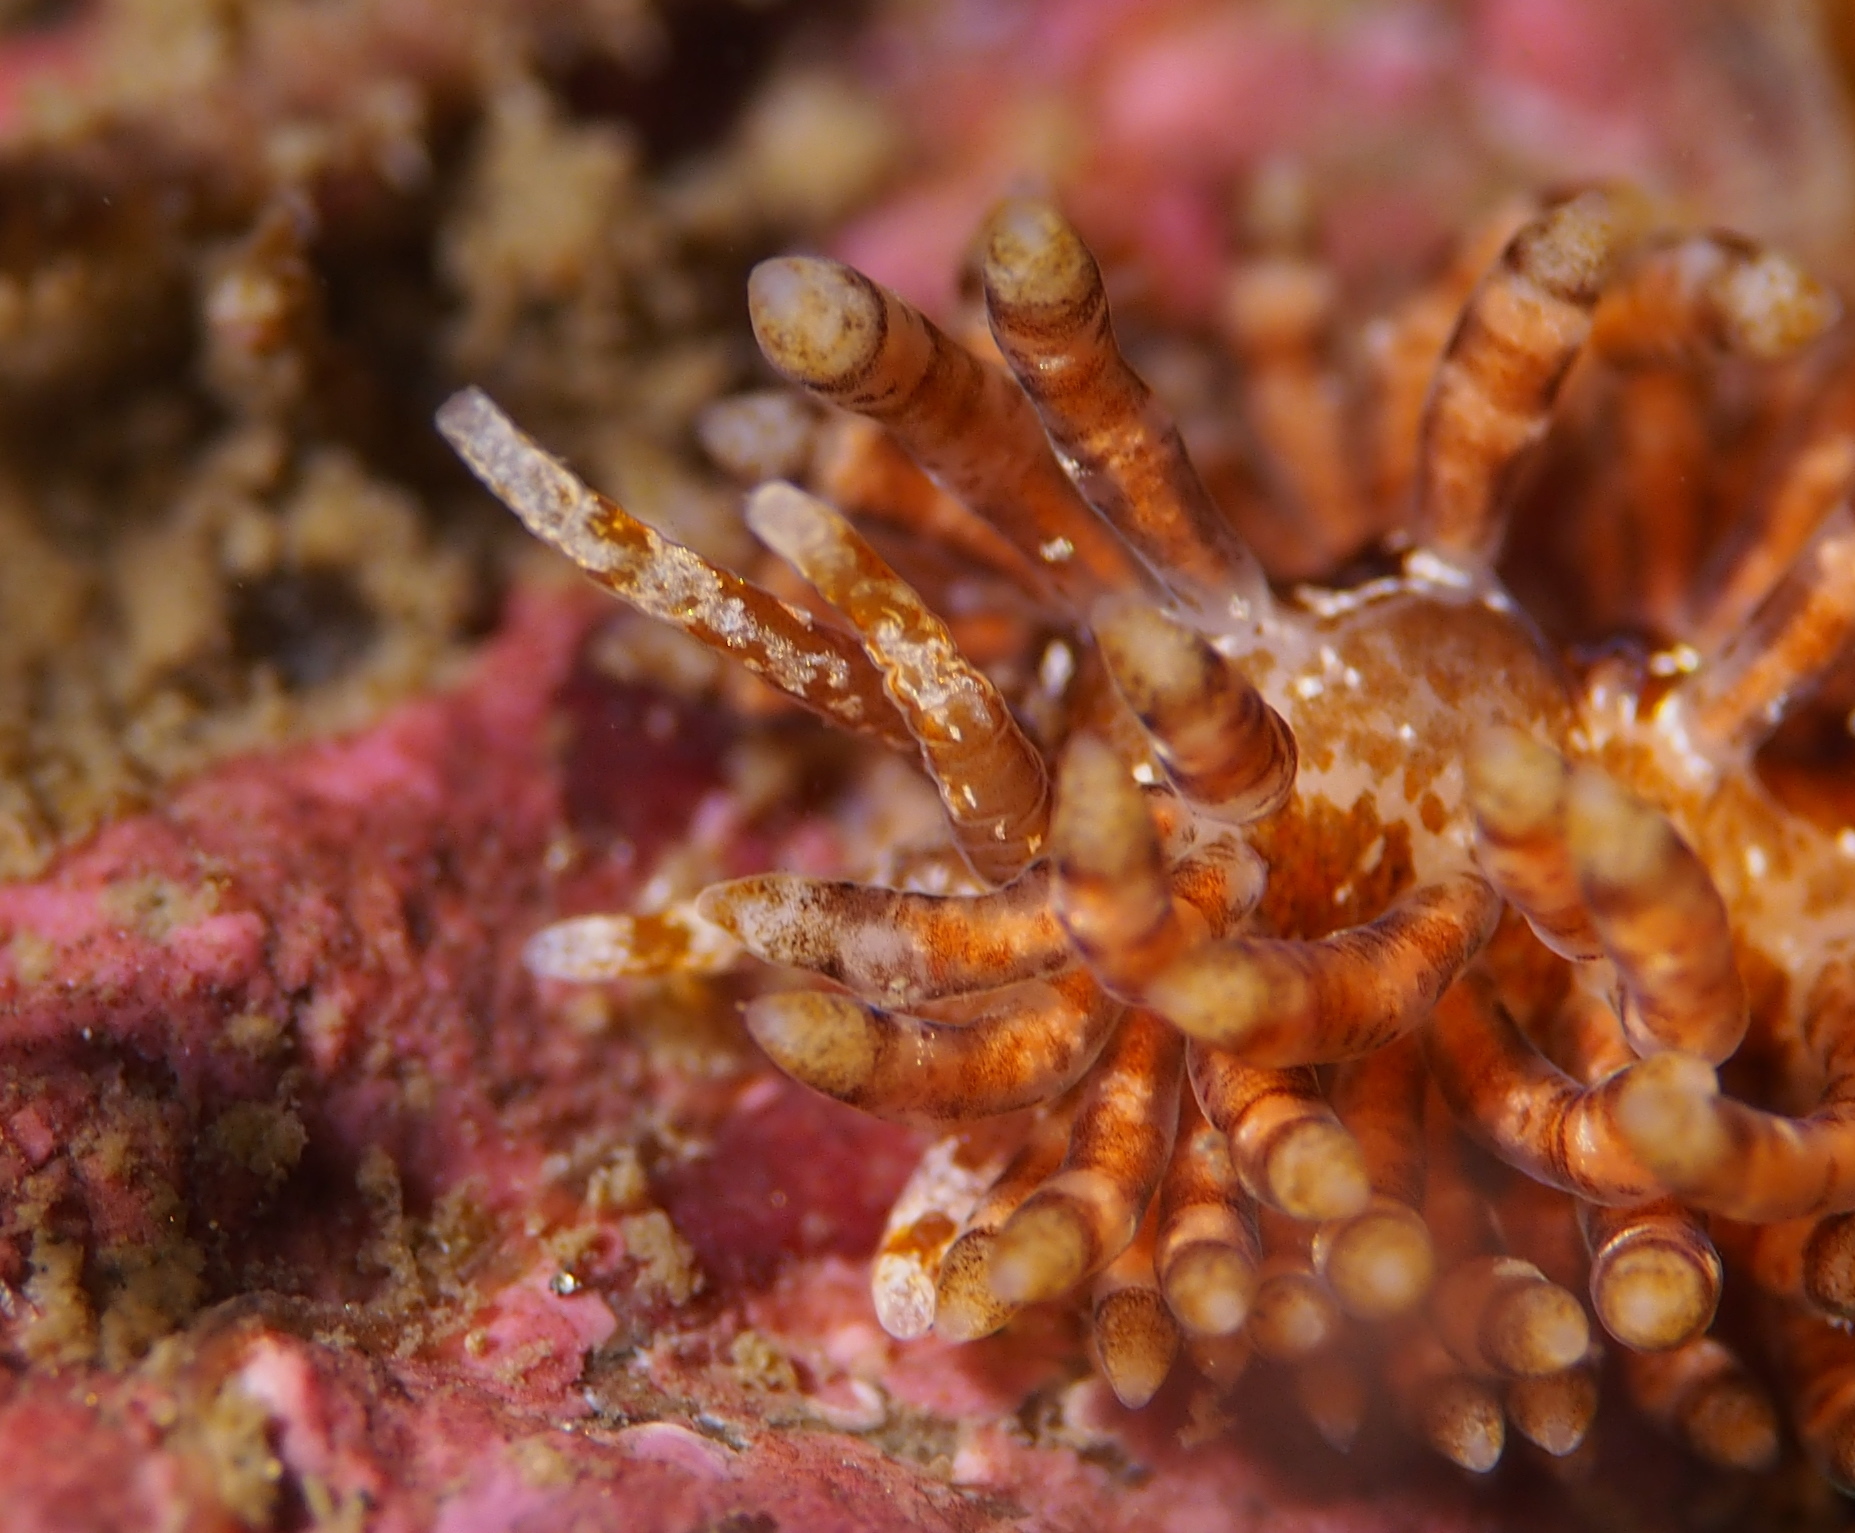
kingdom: Animalia
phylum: Mollusca
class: Gastropoda
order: Nudibranchia
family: Eubranchidae
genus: Eubranchus
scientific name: Eubranchus vittatus
